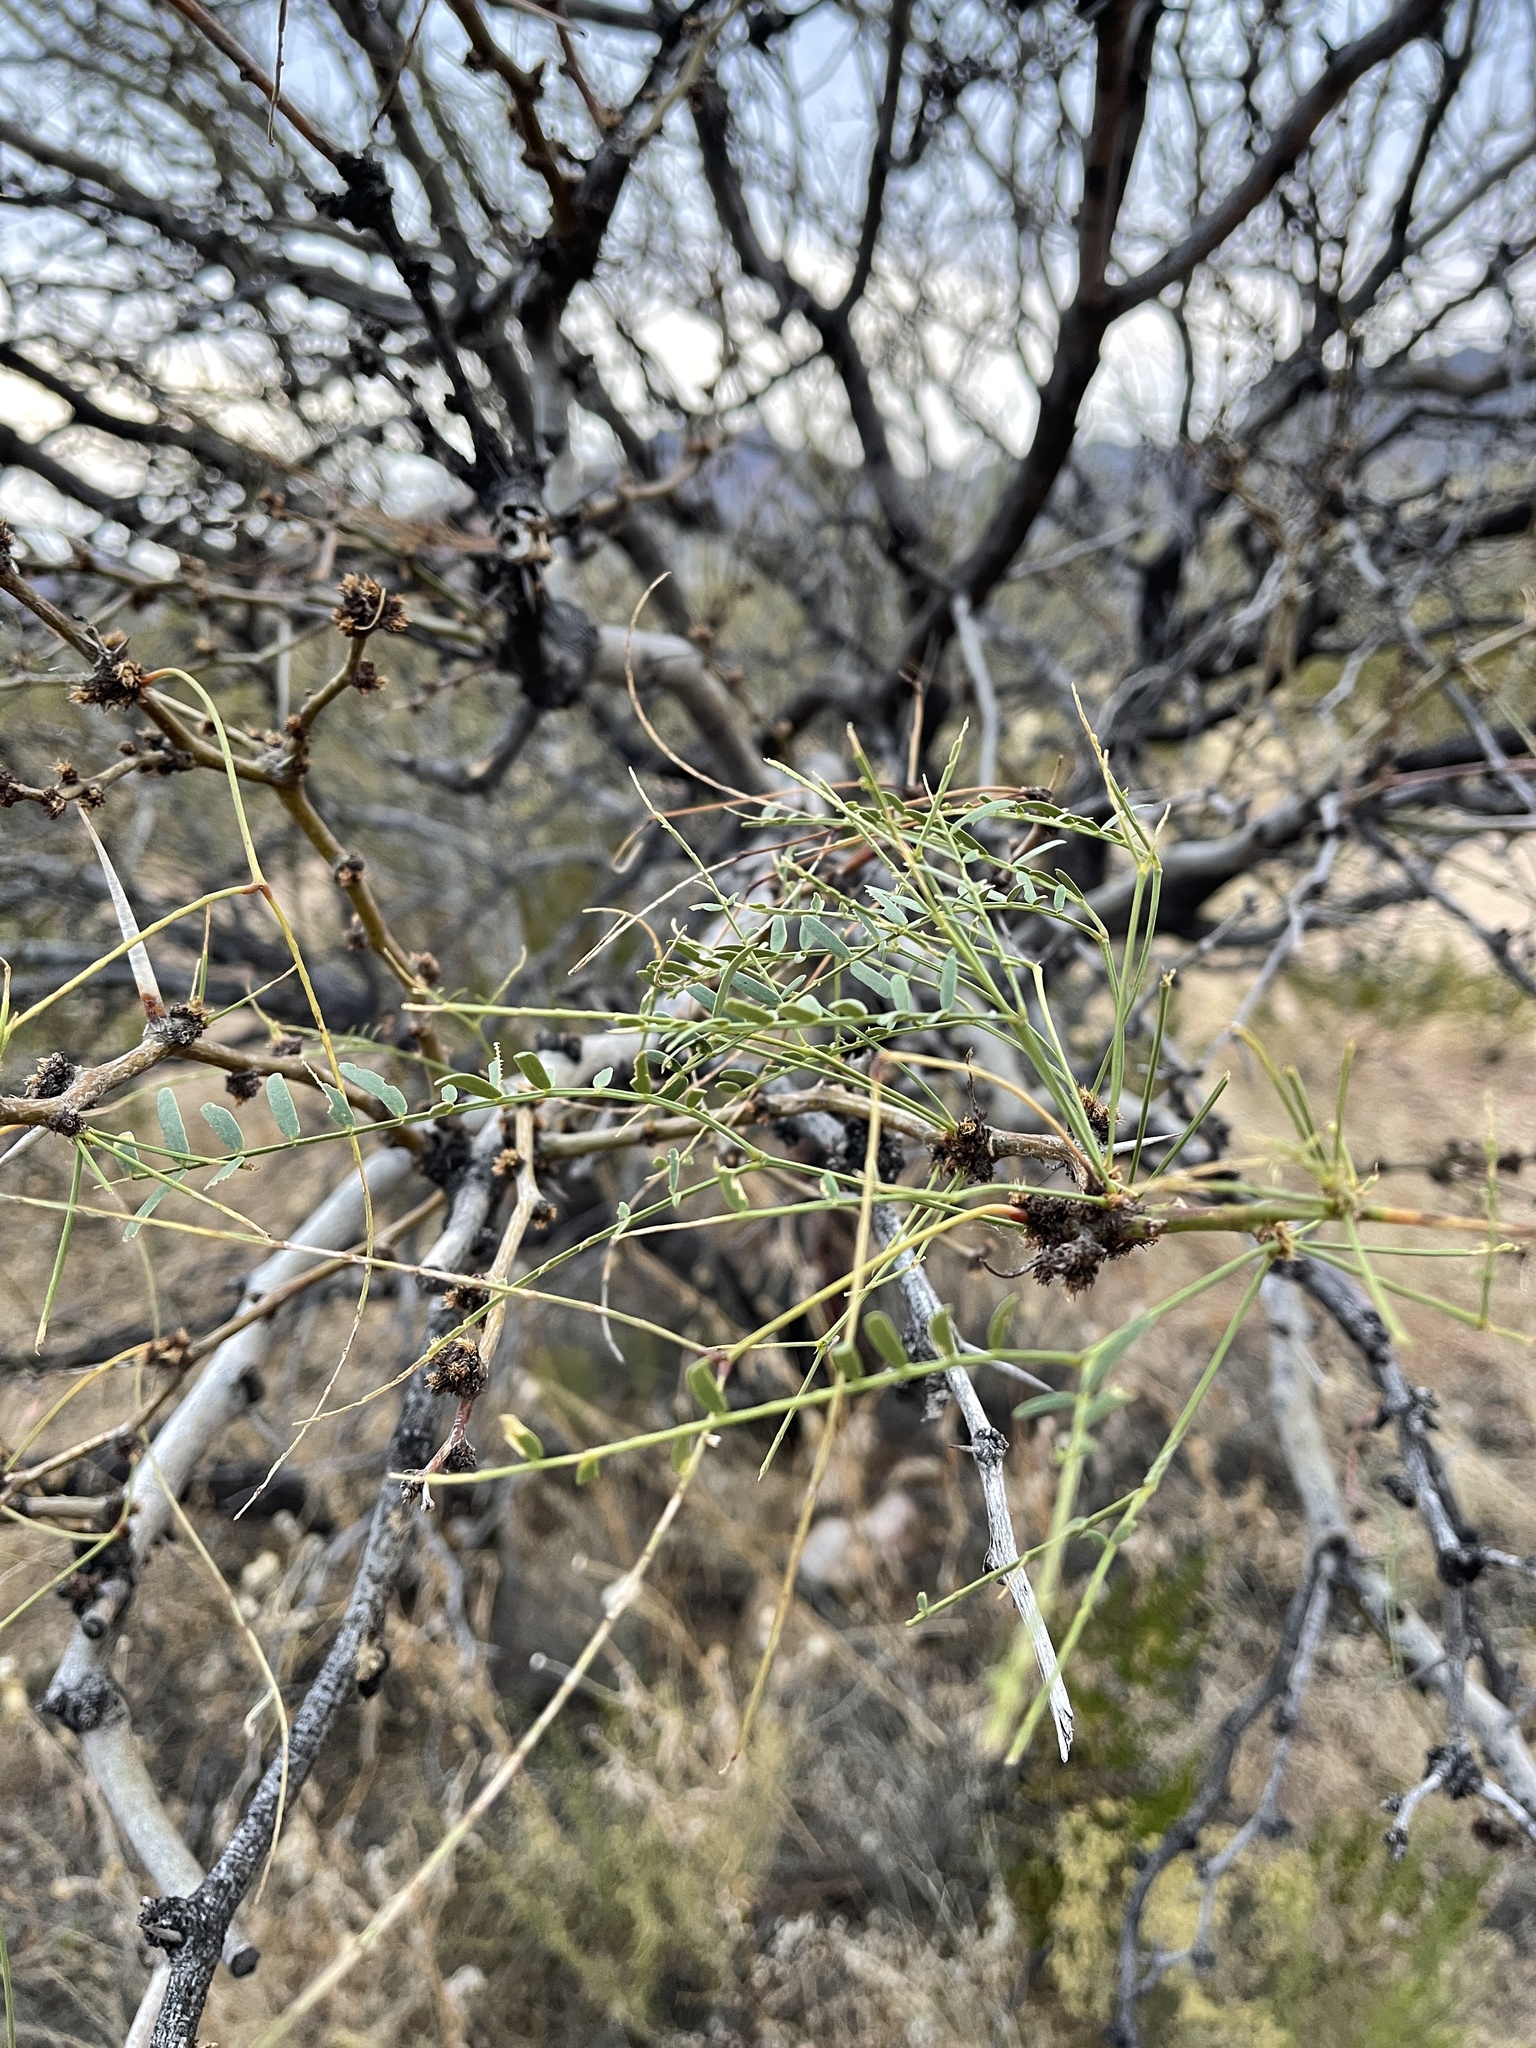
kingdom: Plantae
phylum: Tracheophyta
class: Magnoliopsida
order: Fabales
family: Fabaceae
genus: Prosopis
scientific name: Prosopis glandulosa
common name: Honey mesquite
